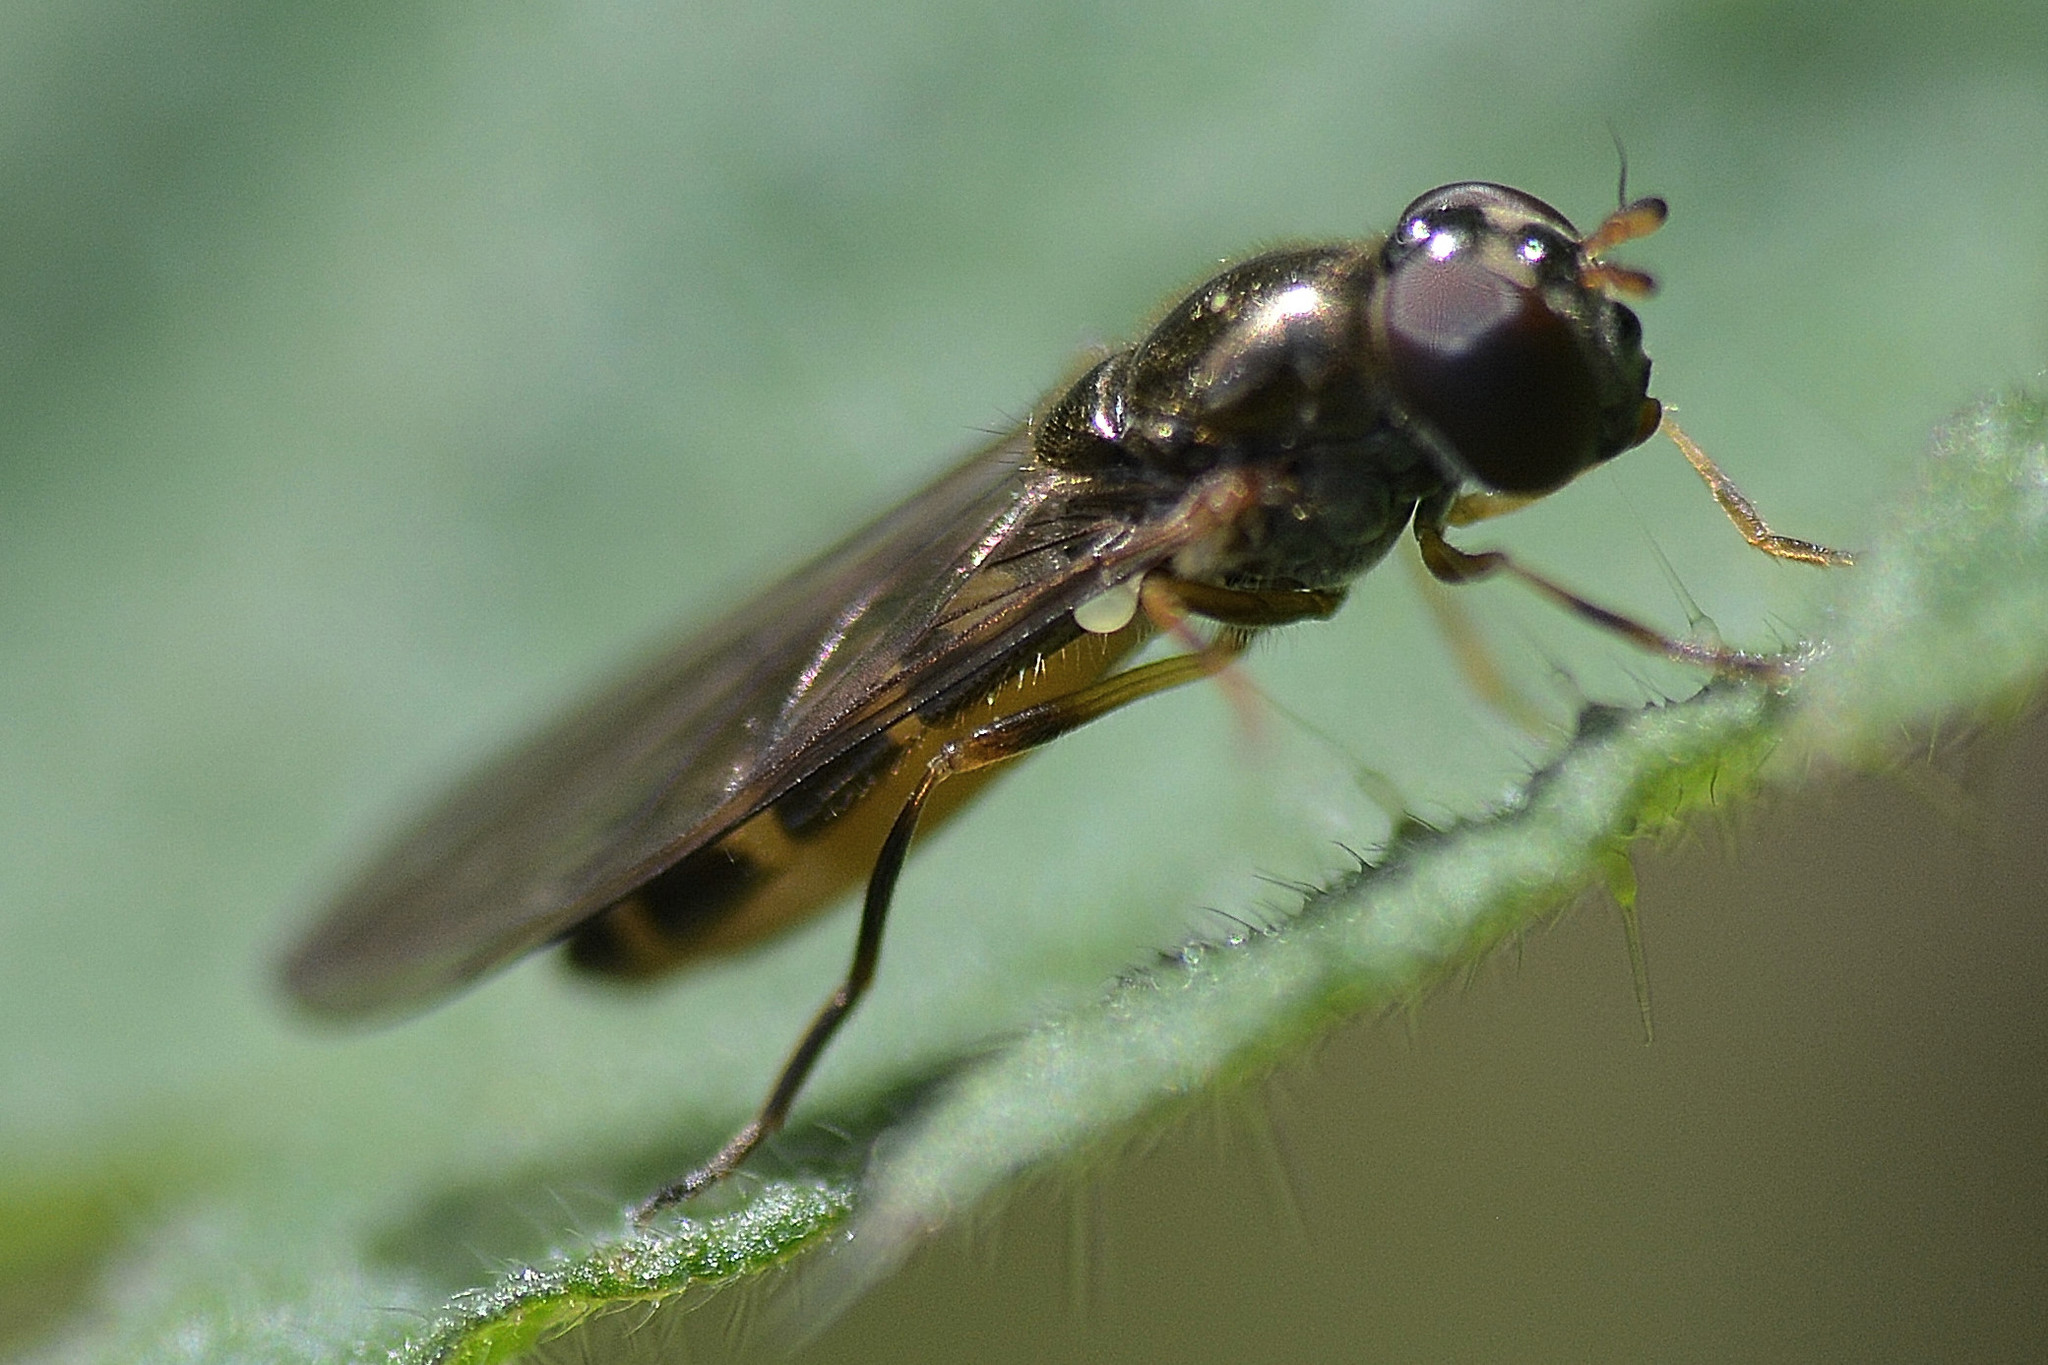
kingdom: Animalia
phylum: Arthropoda
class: Insecta
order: Diptera
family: Syrphidae
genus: Melanostoma
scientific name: Melanostoma scalare
